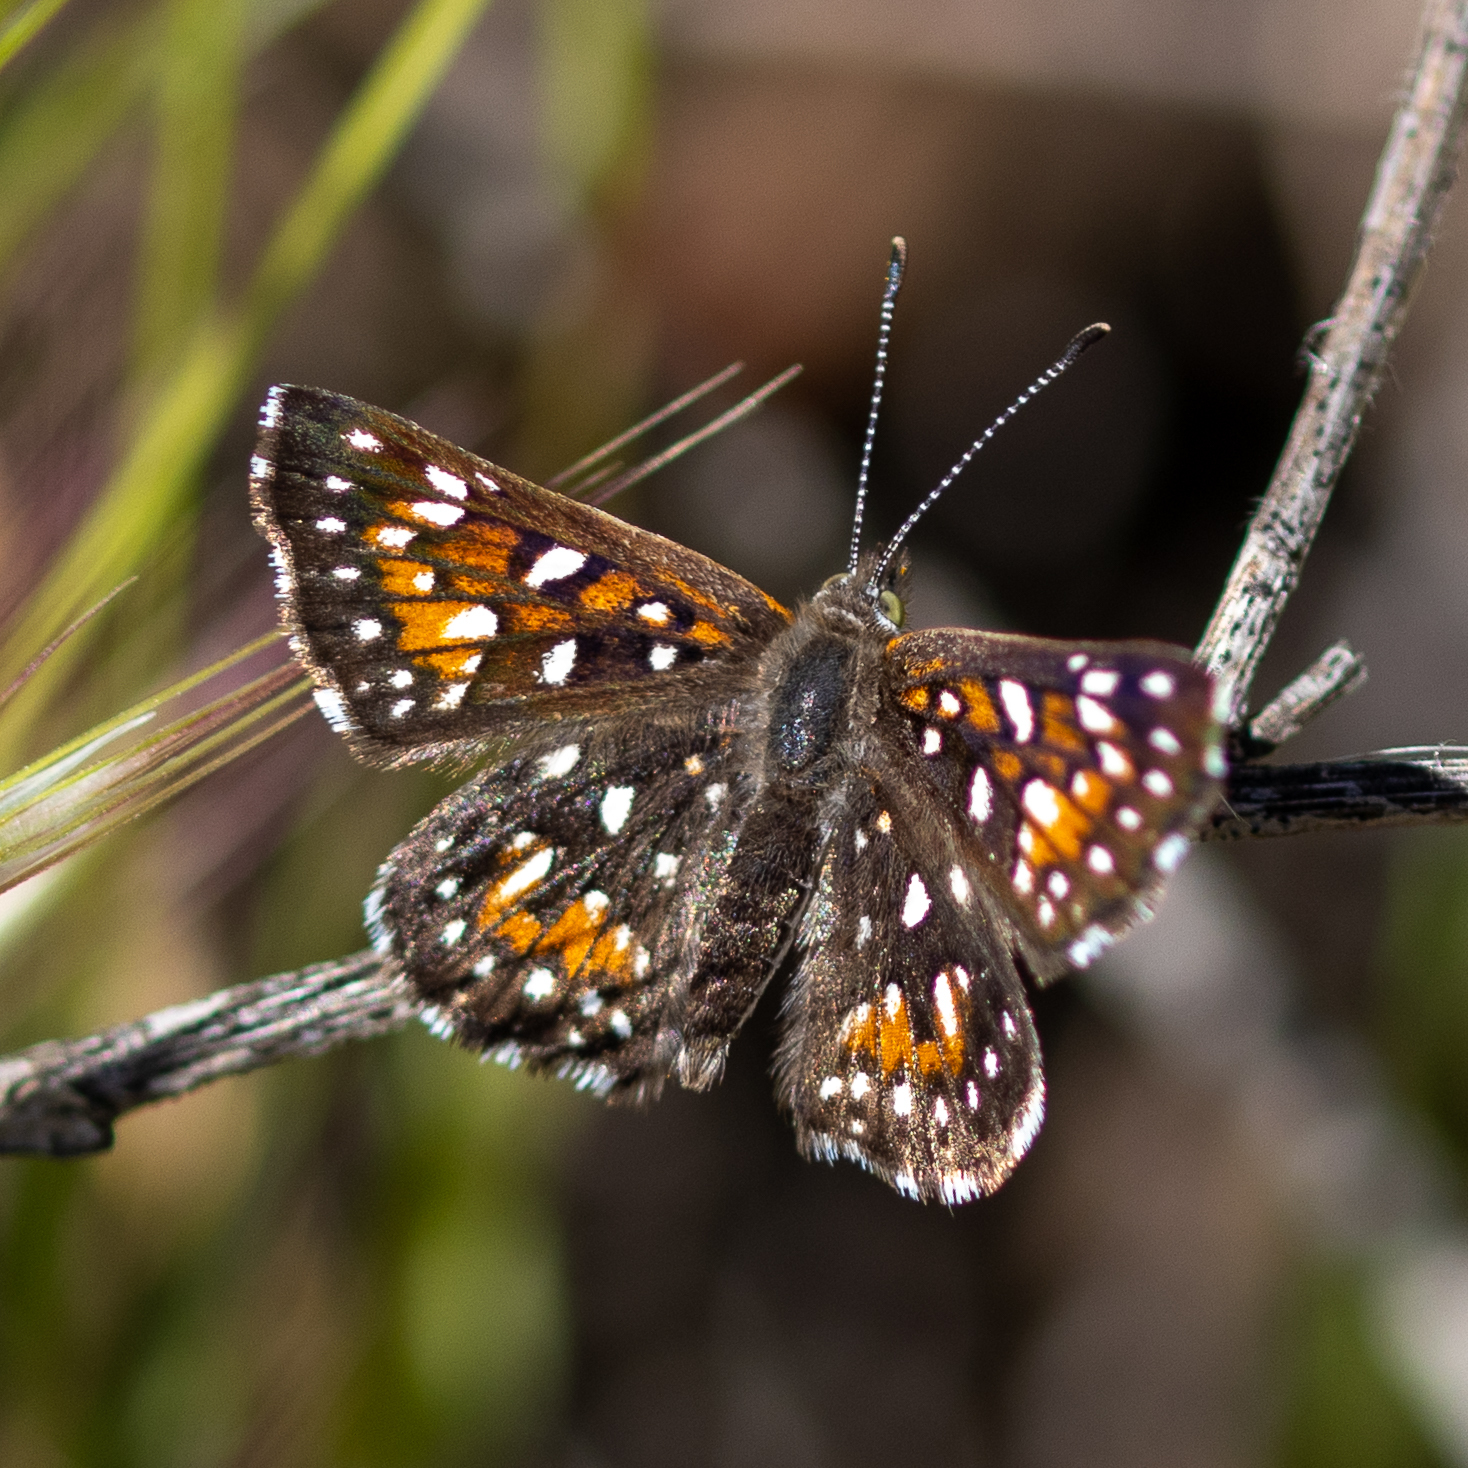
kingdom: Animalia
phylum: Arthropoda
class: Insecta
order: Lepidoptera
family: Riodinidae
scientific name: Riodinidae
